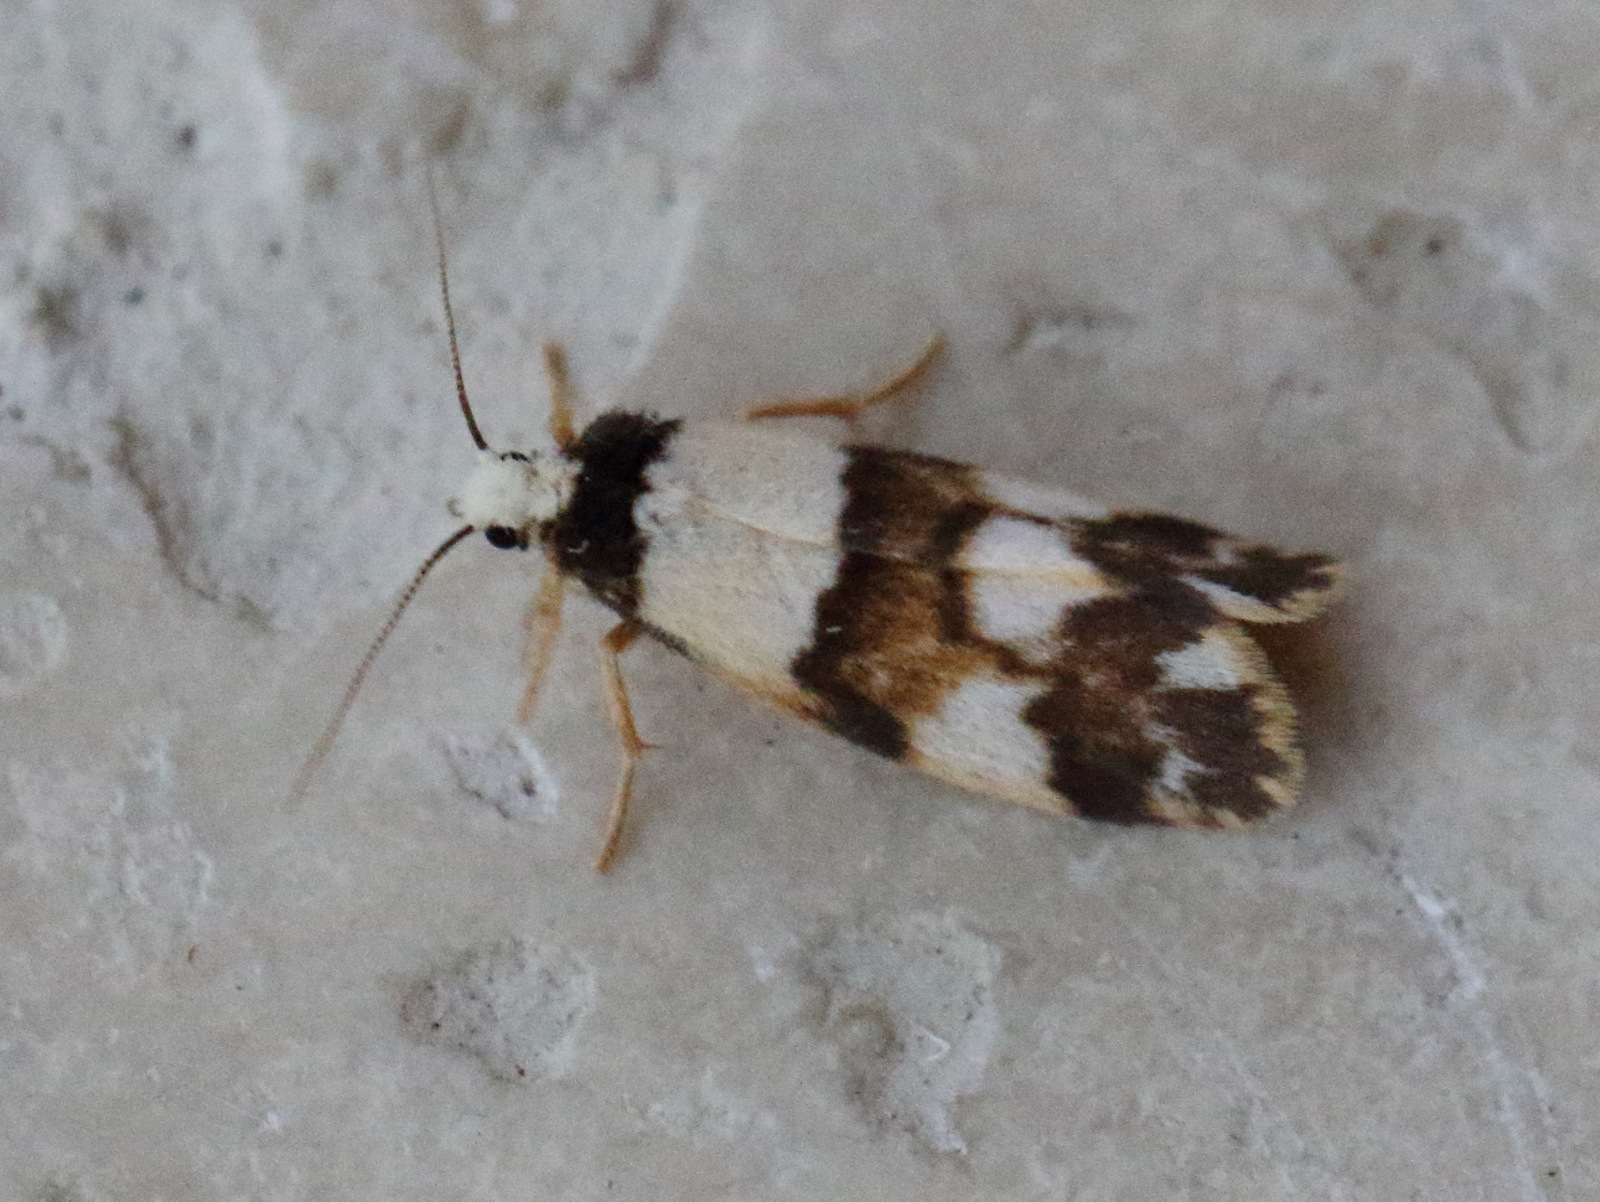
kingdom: Animalia
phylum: Arthropoda
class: Insecta
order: Lepidoptera
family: Erebidae
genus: Philenora
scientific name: Philenora aspectalella
